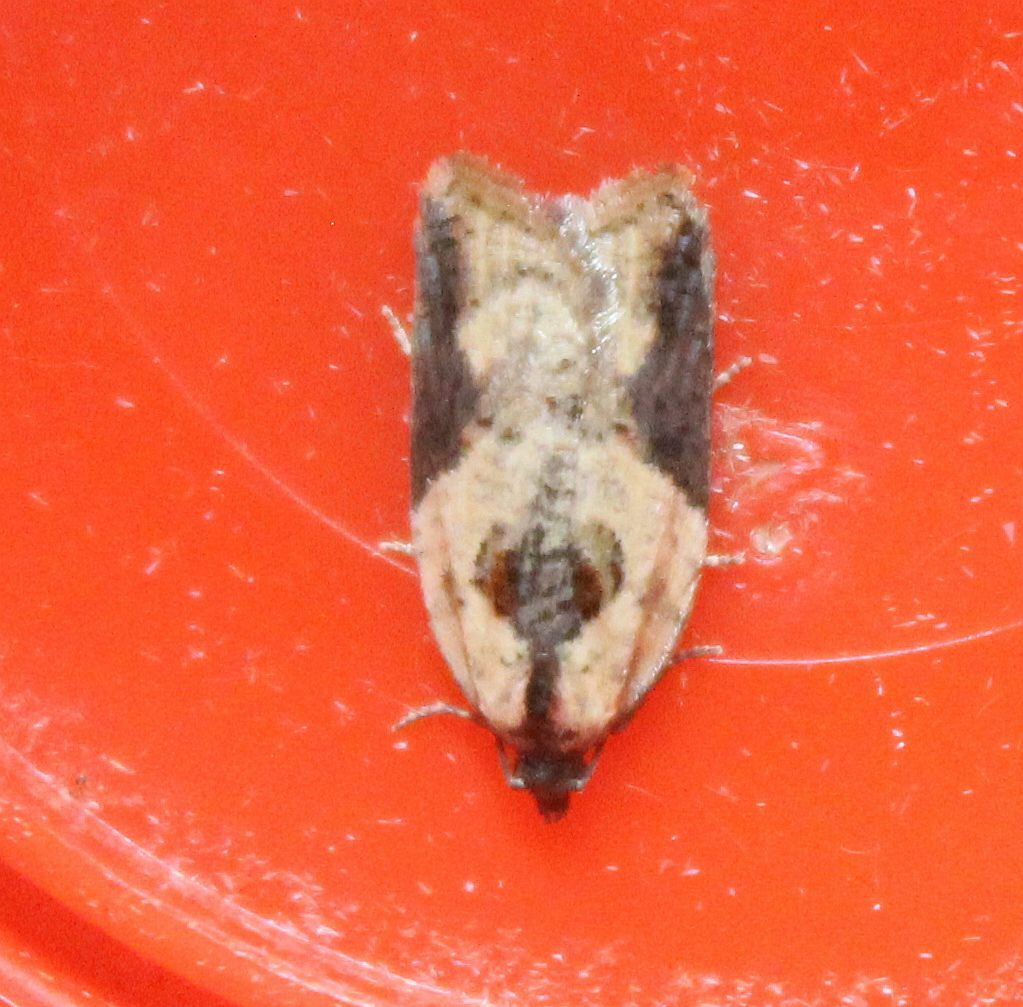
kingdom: Animalia
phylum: Arthropoda
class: Insecta
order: Lepidoptera
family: Tortricidae
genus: Acleris
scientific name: Acleris variegana
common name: Garden rose tortrix
